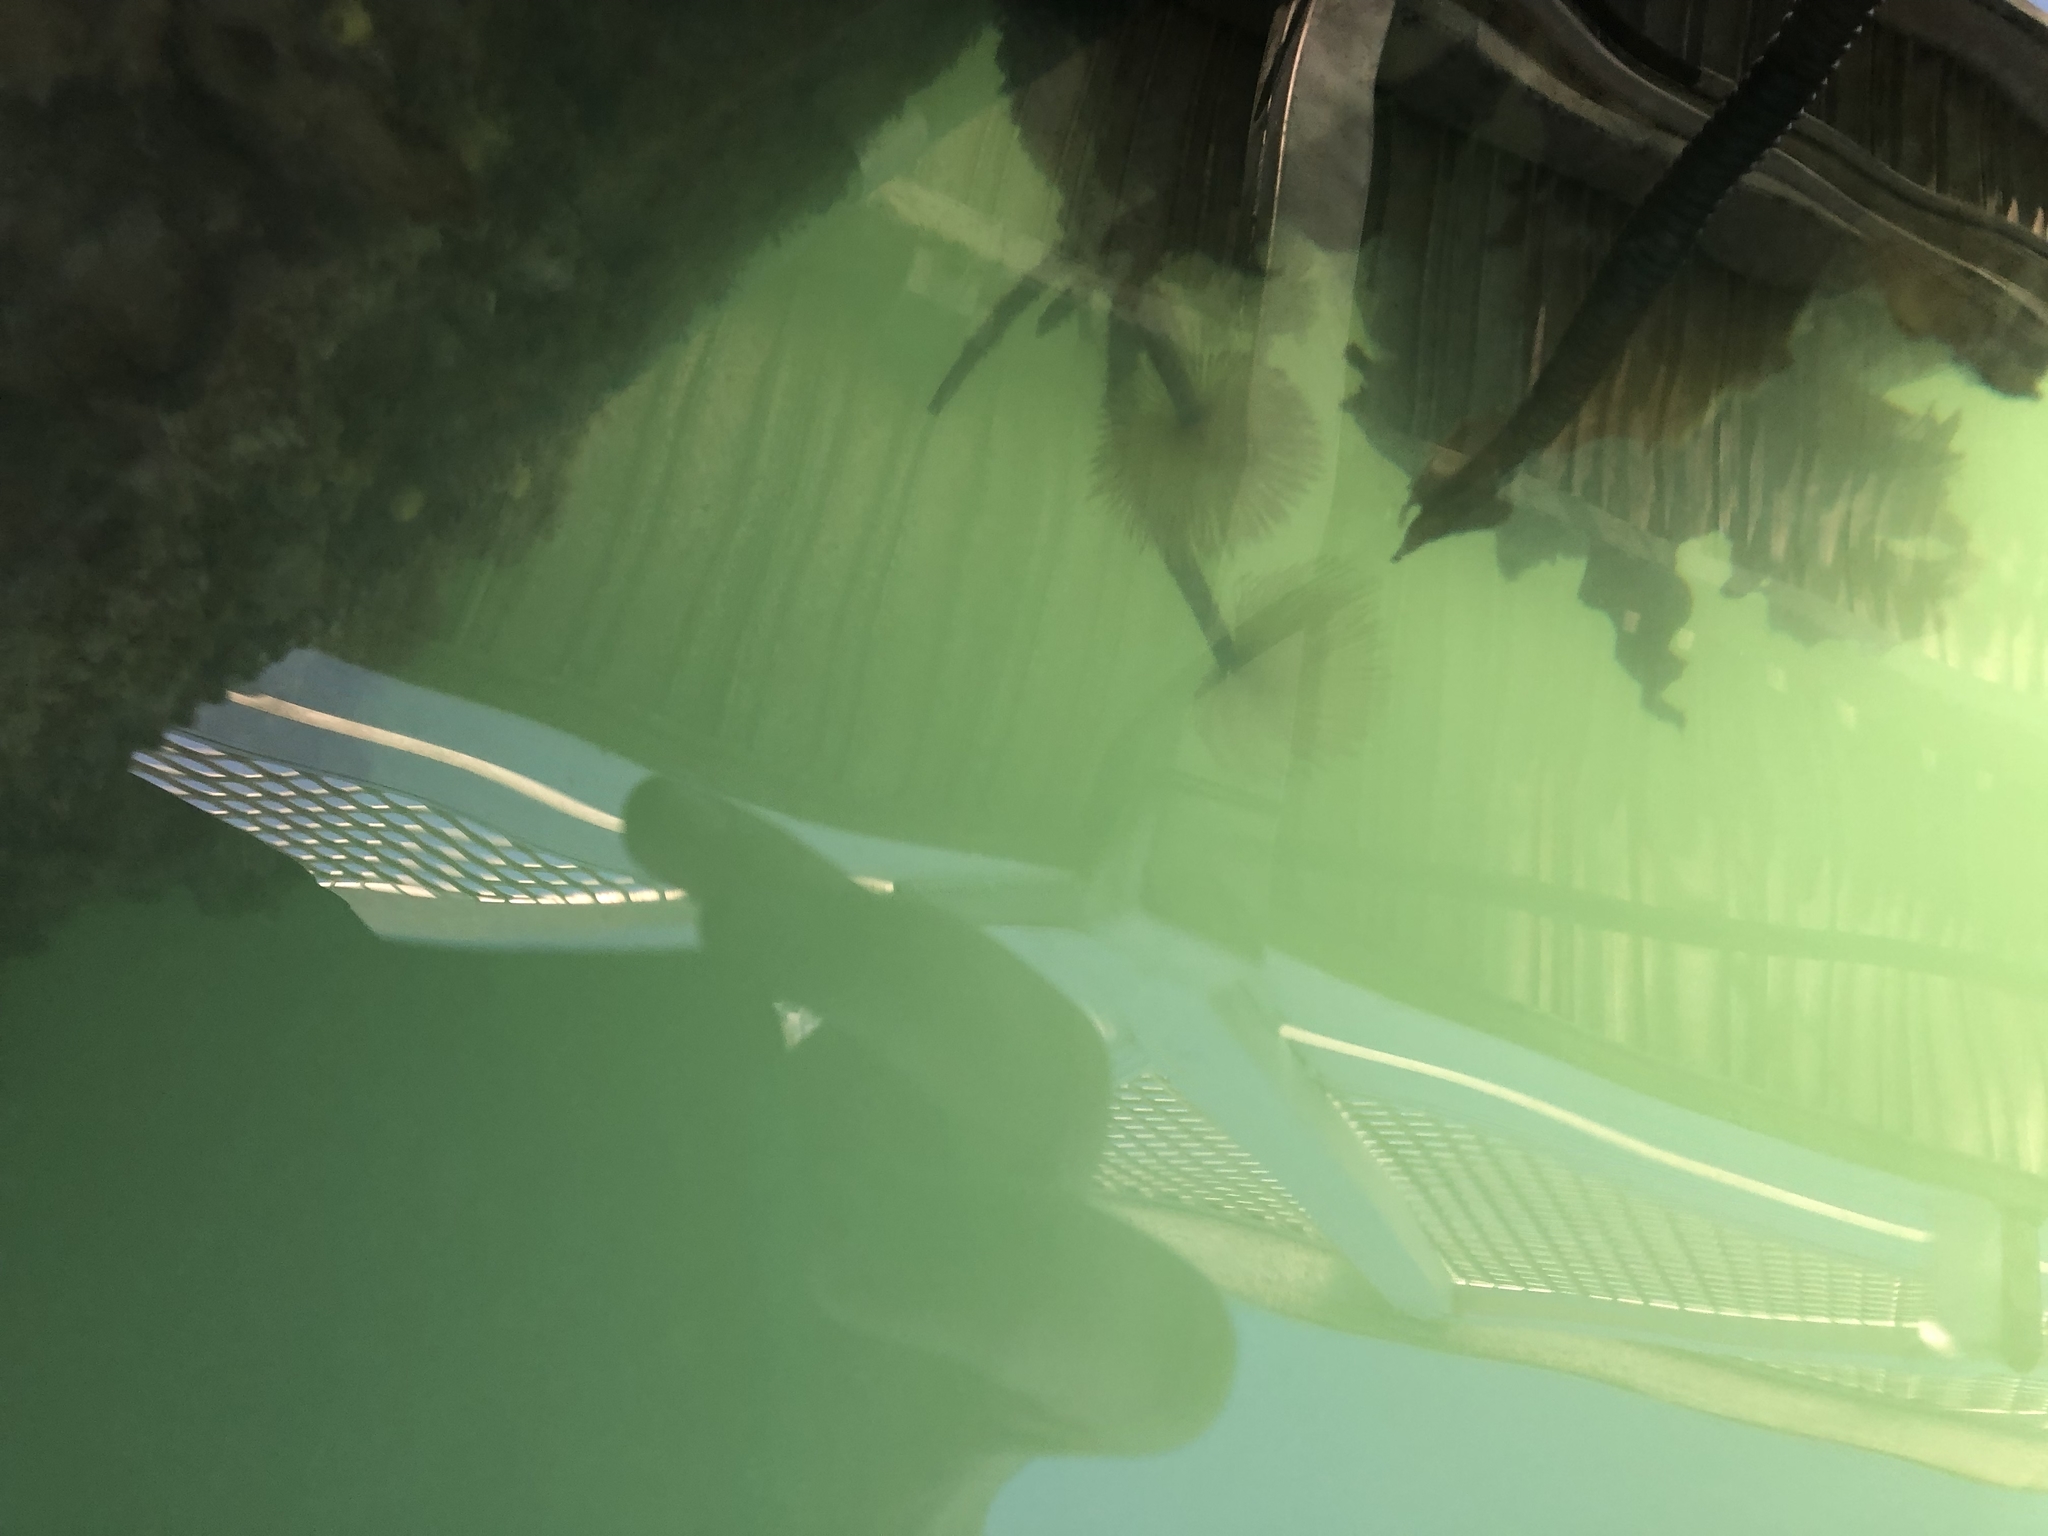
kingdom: Animalia
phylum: Annelida
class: Polychaeta
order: Sabellida
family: Sabellidae
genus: Sabella
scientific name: Sabella spallanzanii
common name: Feather duster worm
